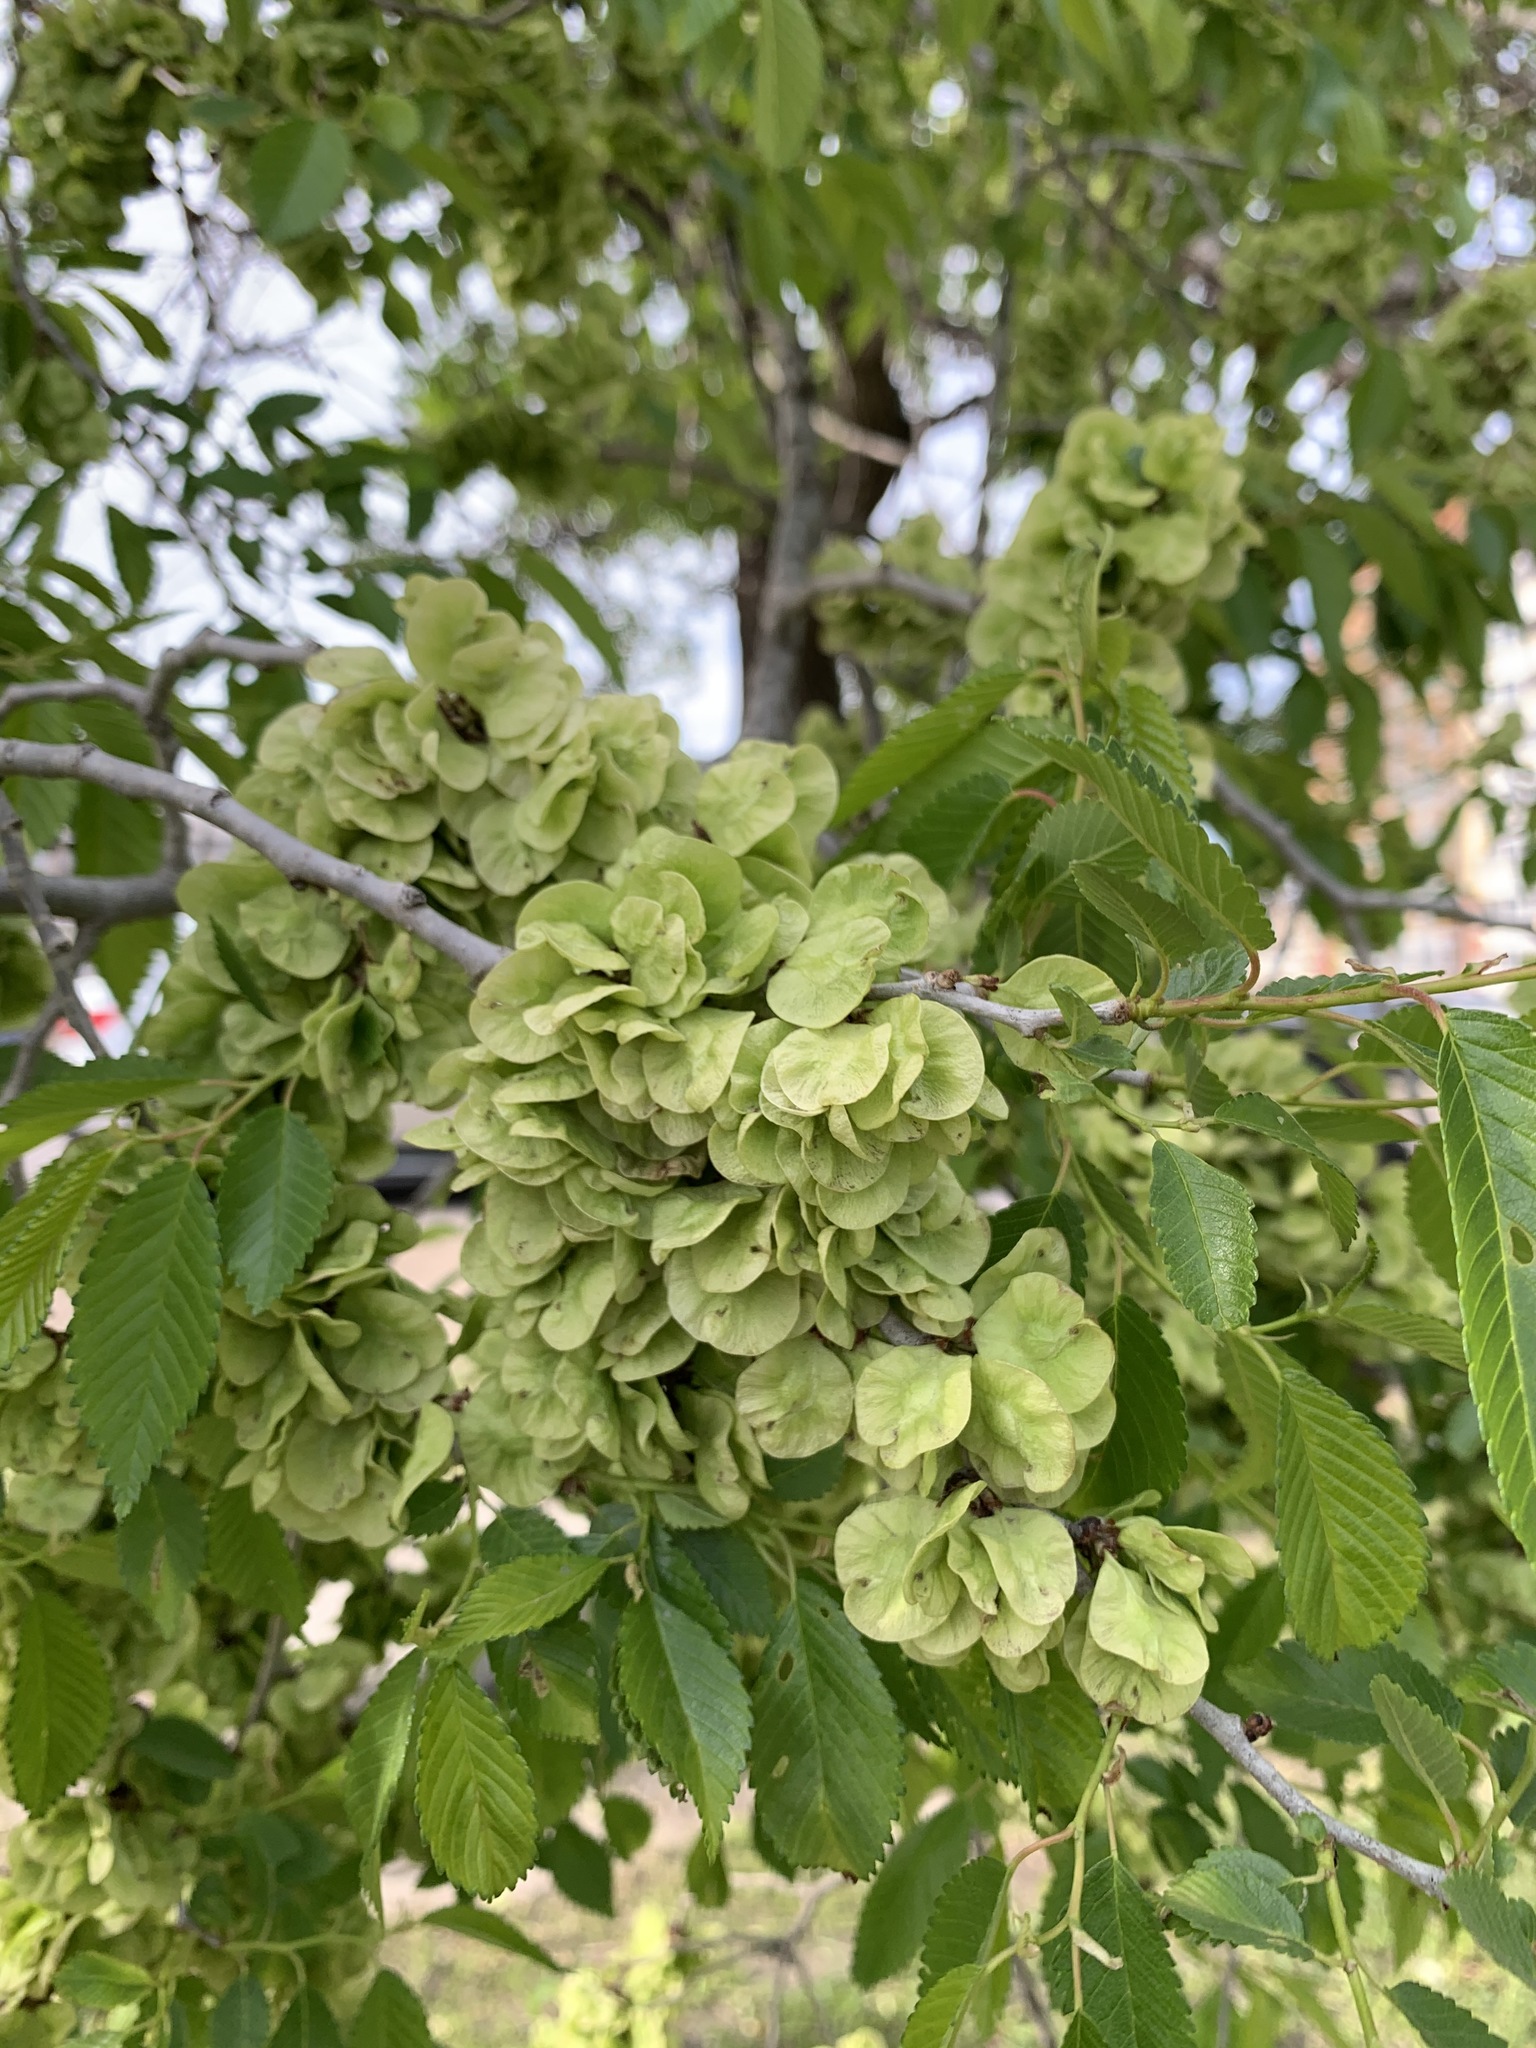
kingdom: Plantae
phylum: Tracheophyta
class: Magnoliopsida
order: Rosales
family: Ulmaceae
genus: Ulmus
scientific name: Ulmus pumila
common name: Siberian elm
